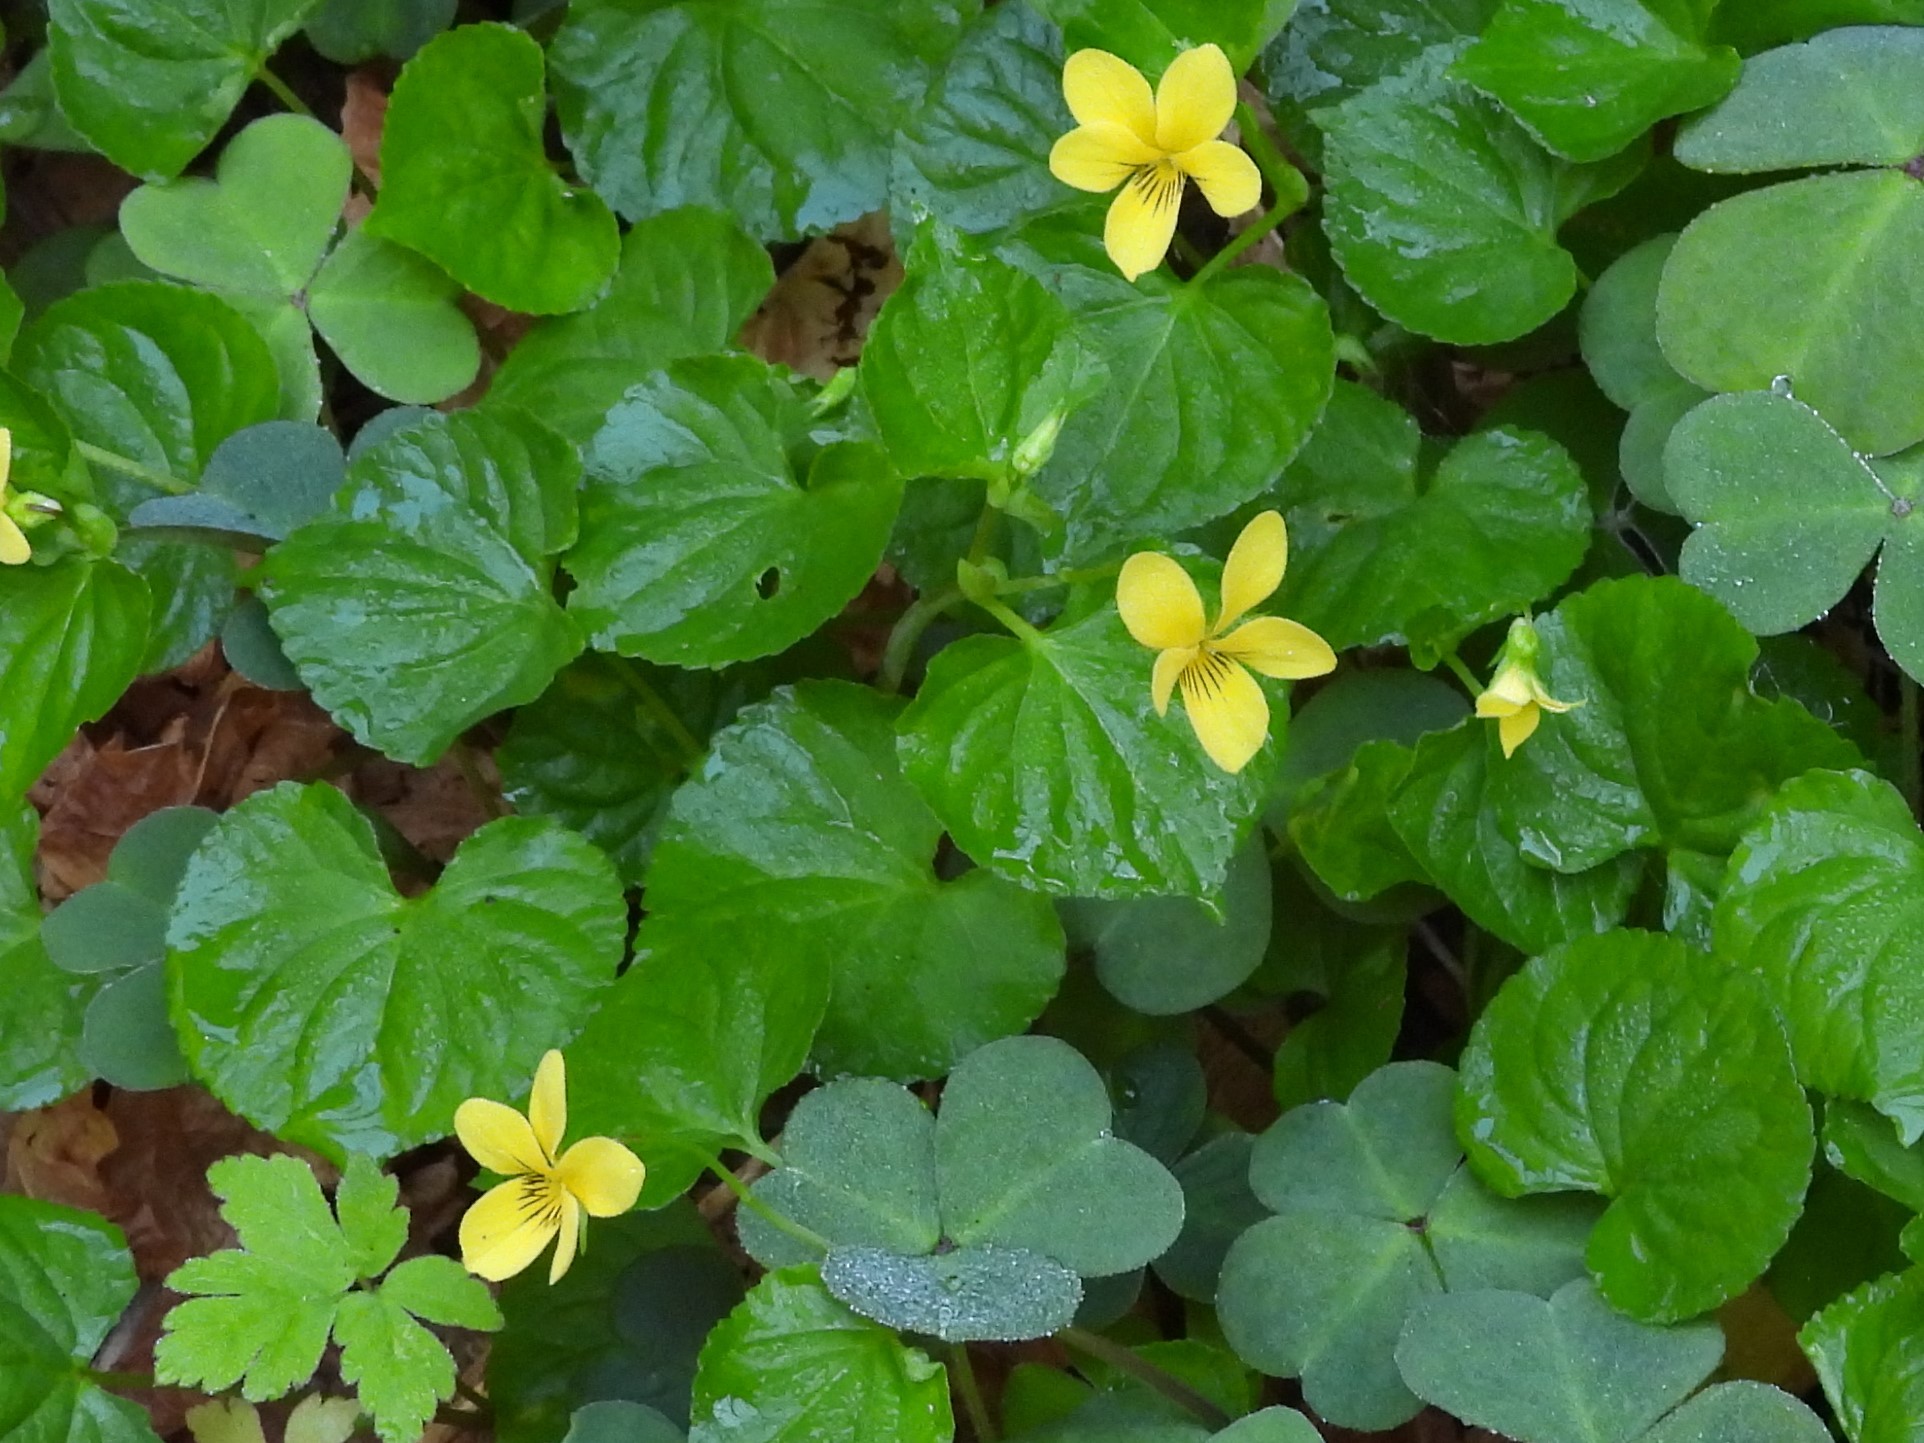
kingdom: Plantae
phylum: Tracheophyta
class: Magnoliopsida
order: Malpighiales
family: Violaceae
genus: Viola
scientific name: Viola glabella
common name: Stream violet
